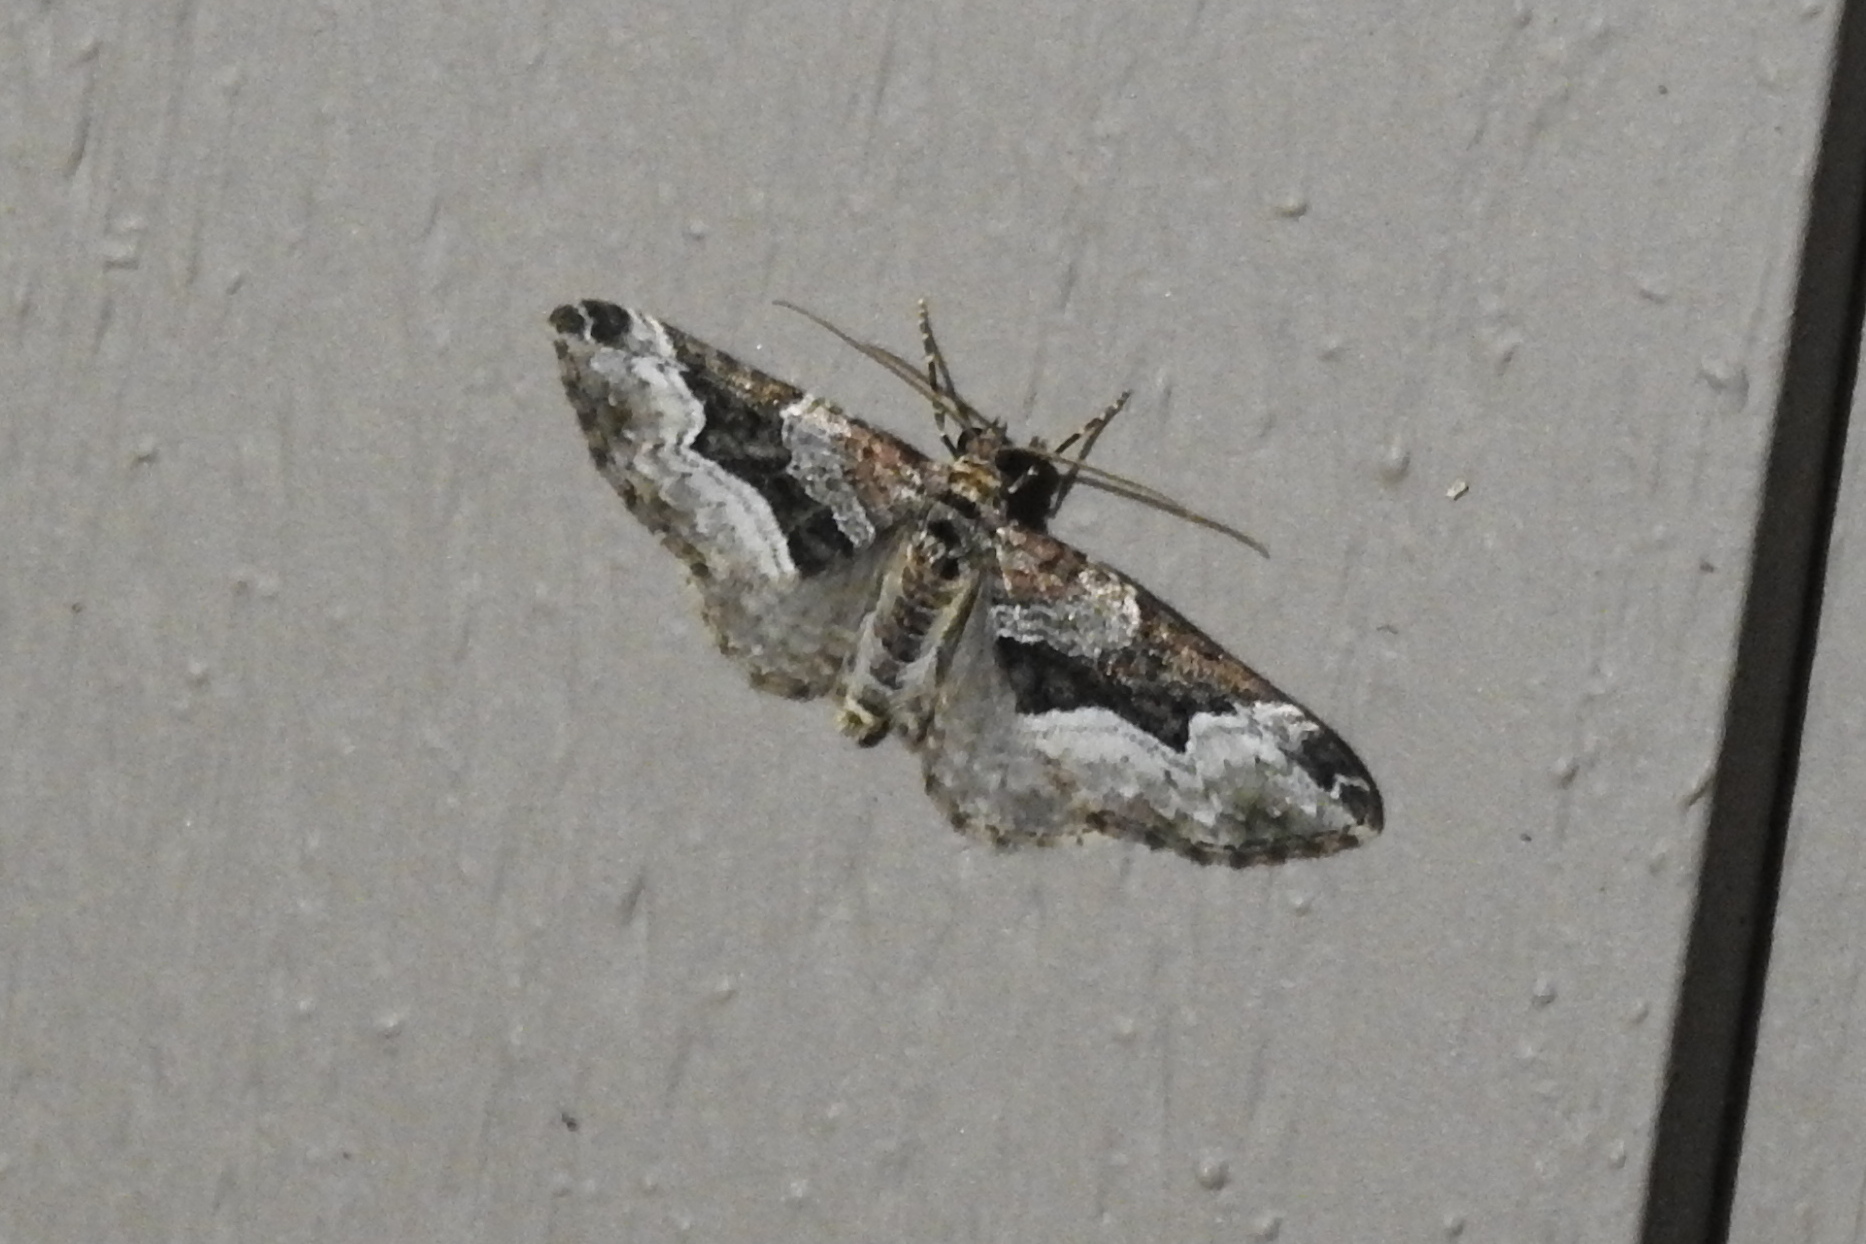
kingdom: Animalia
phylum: Arthropoda
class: Insecta
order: Lepidoptera
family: Geometridae
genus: Euphyia
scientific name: Euphyia intermediata
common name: Sharp-angled carpet
